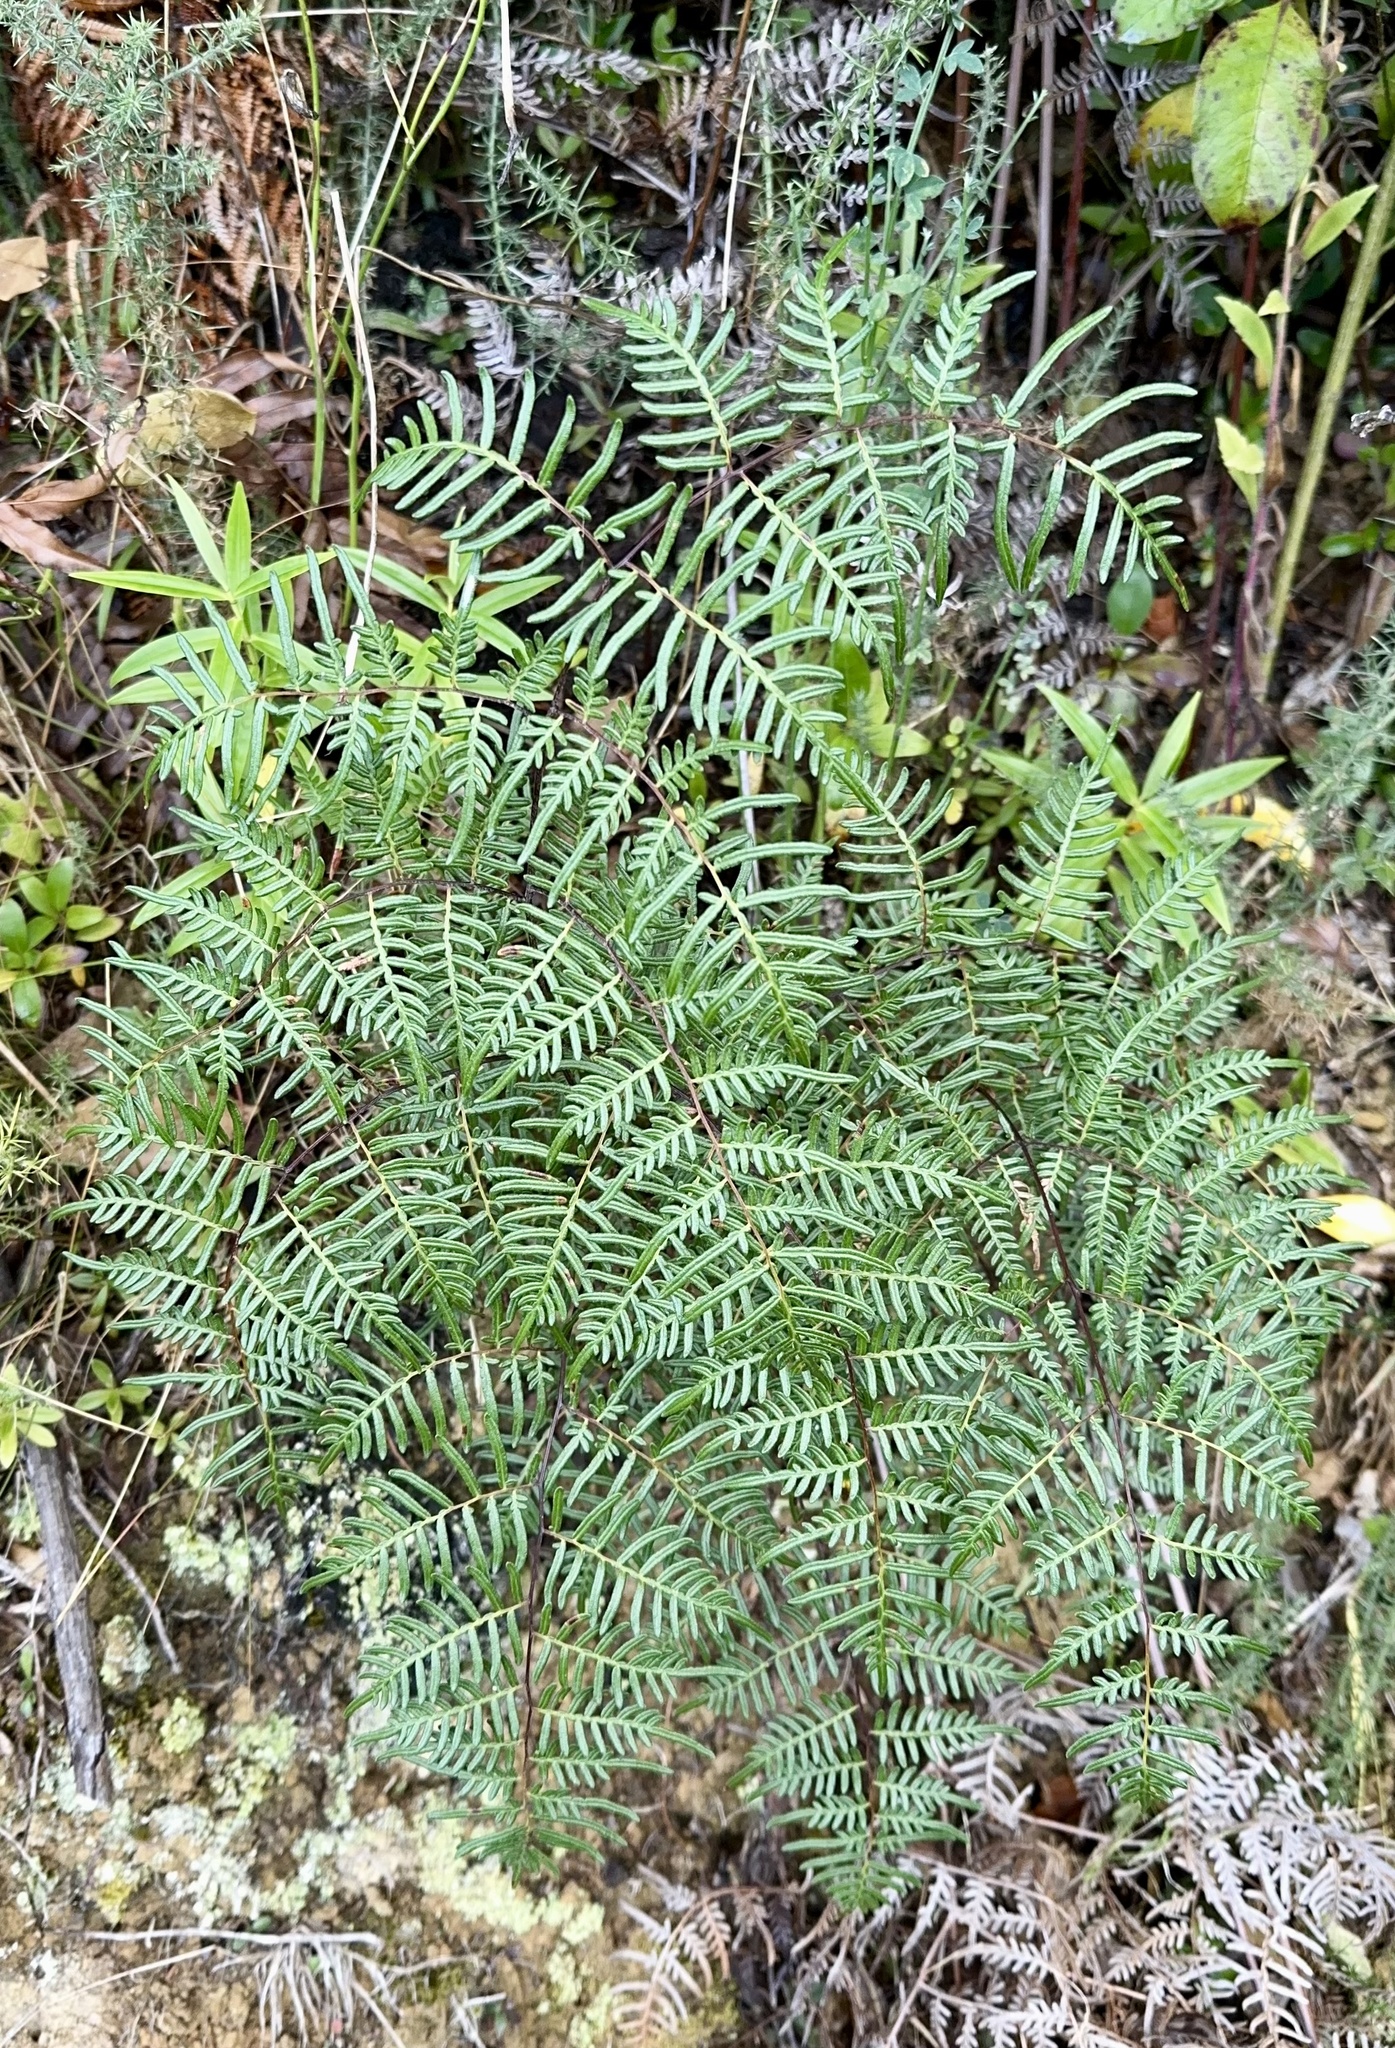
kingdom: Plantae
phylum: Tracheophyta
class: Polypodiopsida
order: Polypodiales
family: Dennstaedtiaceae
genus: Pteridium
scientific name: Pteridium esculentum
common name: Bracken fern
